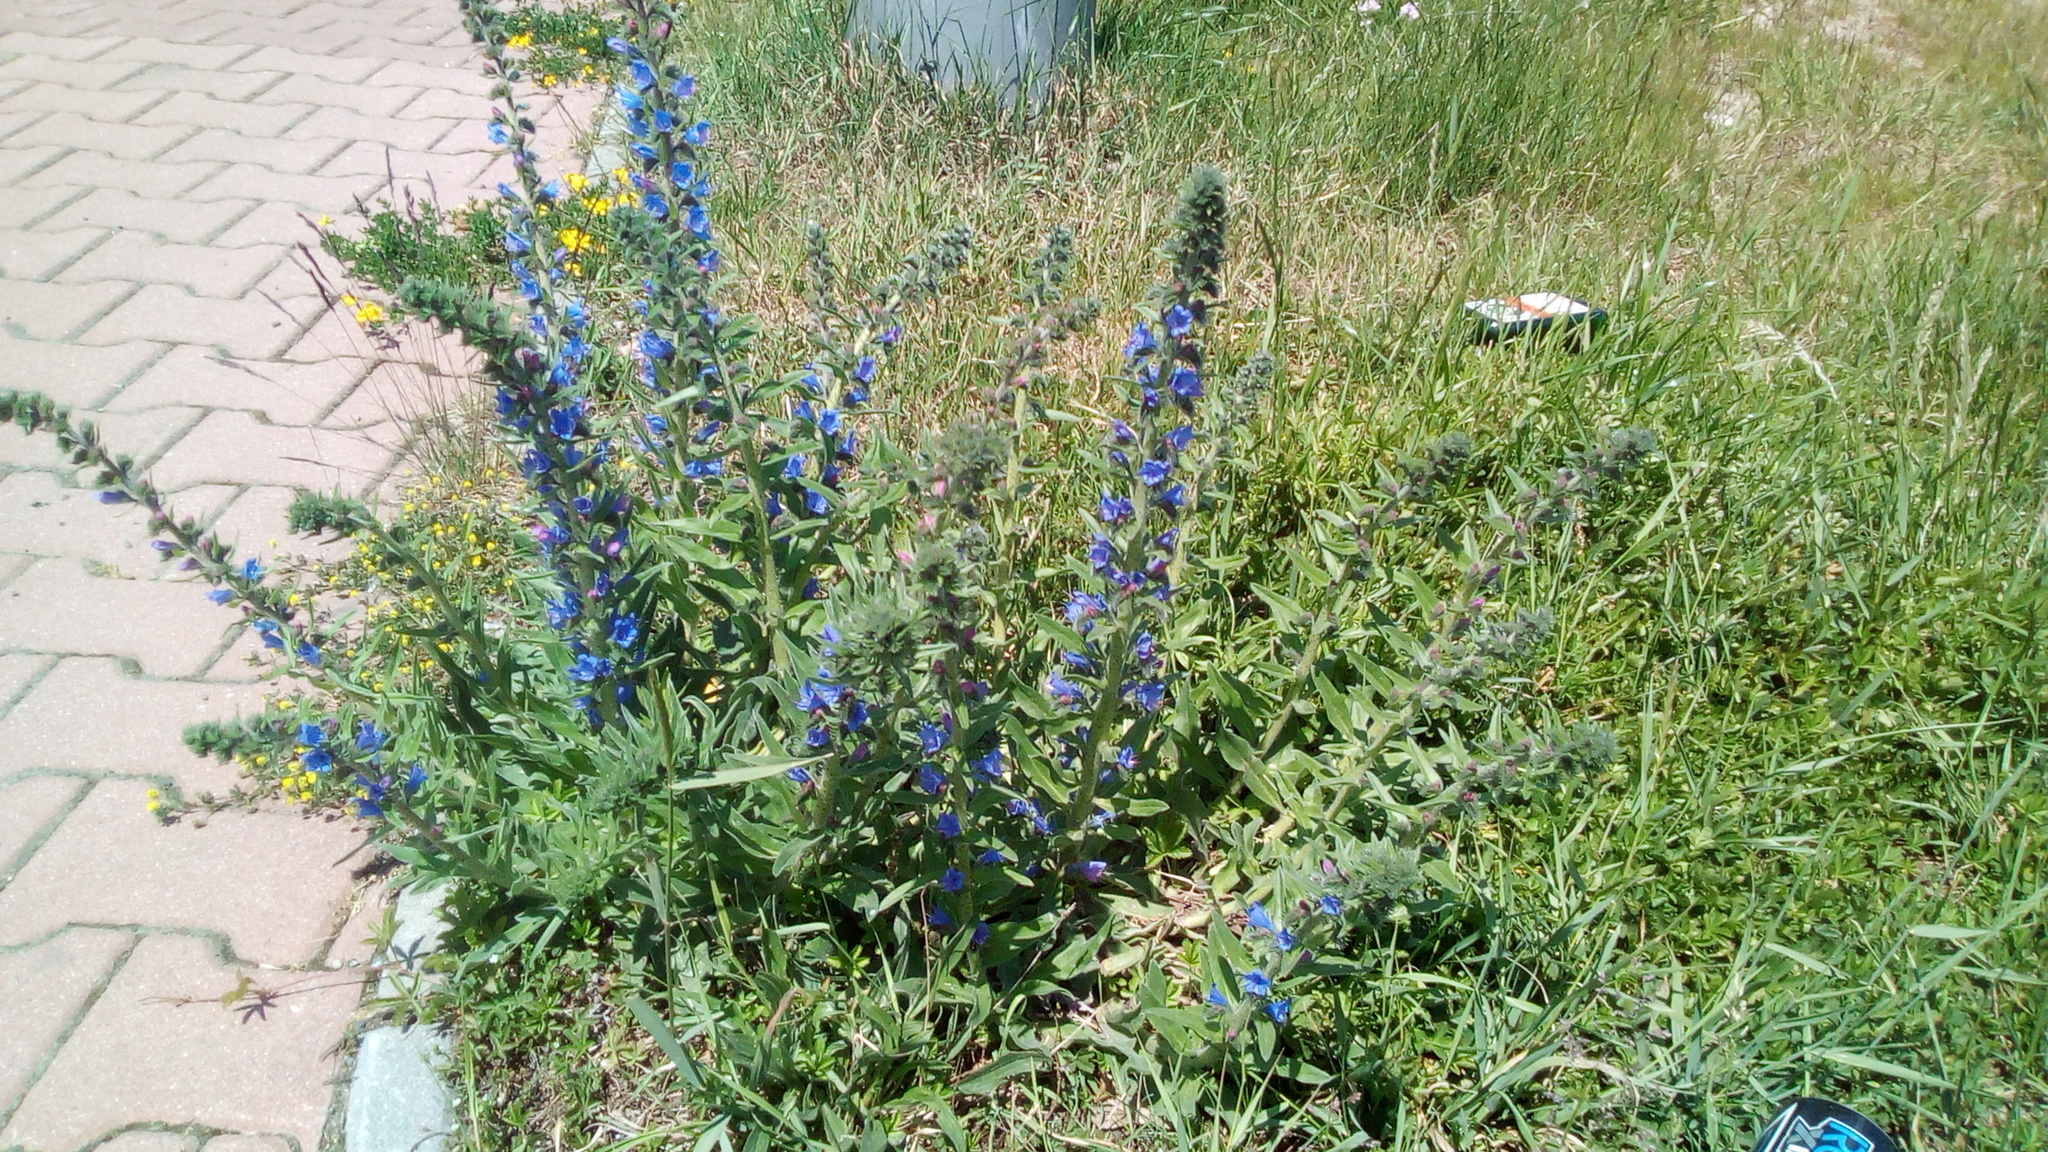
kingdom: Plantae
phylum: Tracheophyta
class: Magnoliopsida
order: Boraginales
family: Boraginaceae
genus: Echium
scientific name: Echium vulgare
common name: Common viper's bugloss
